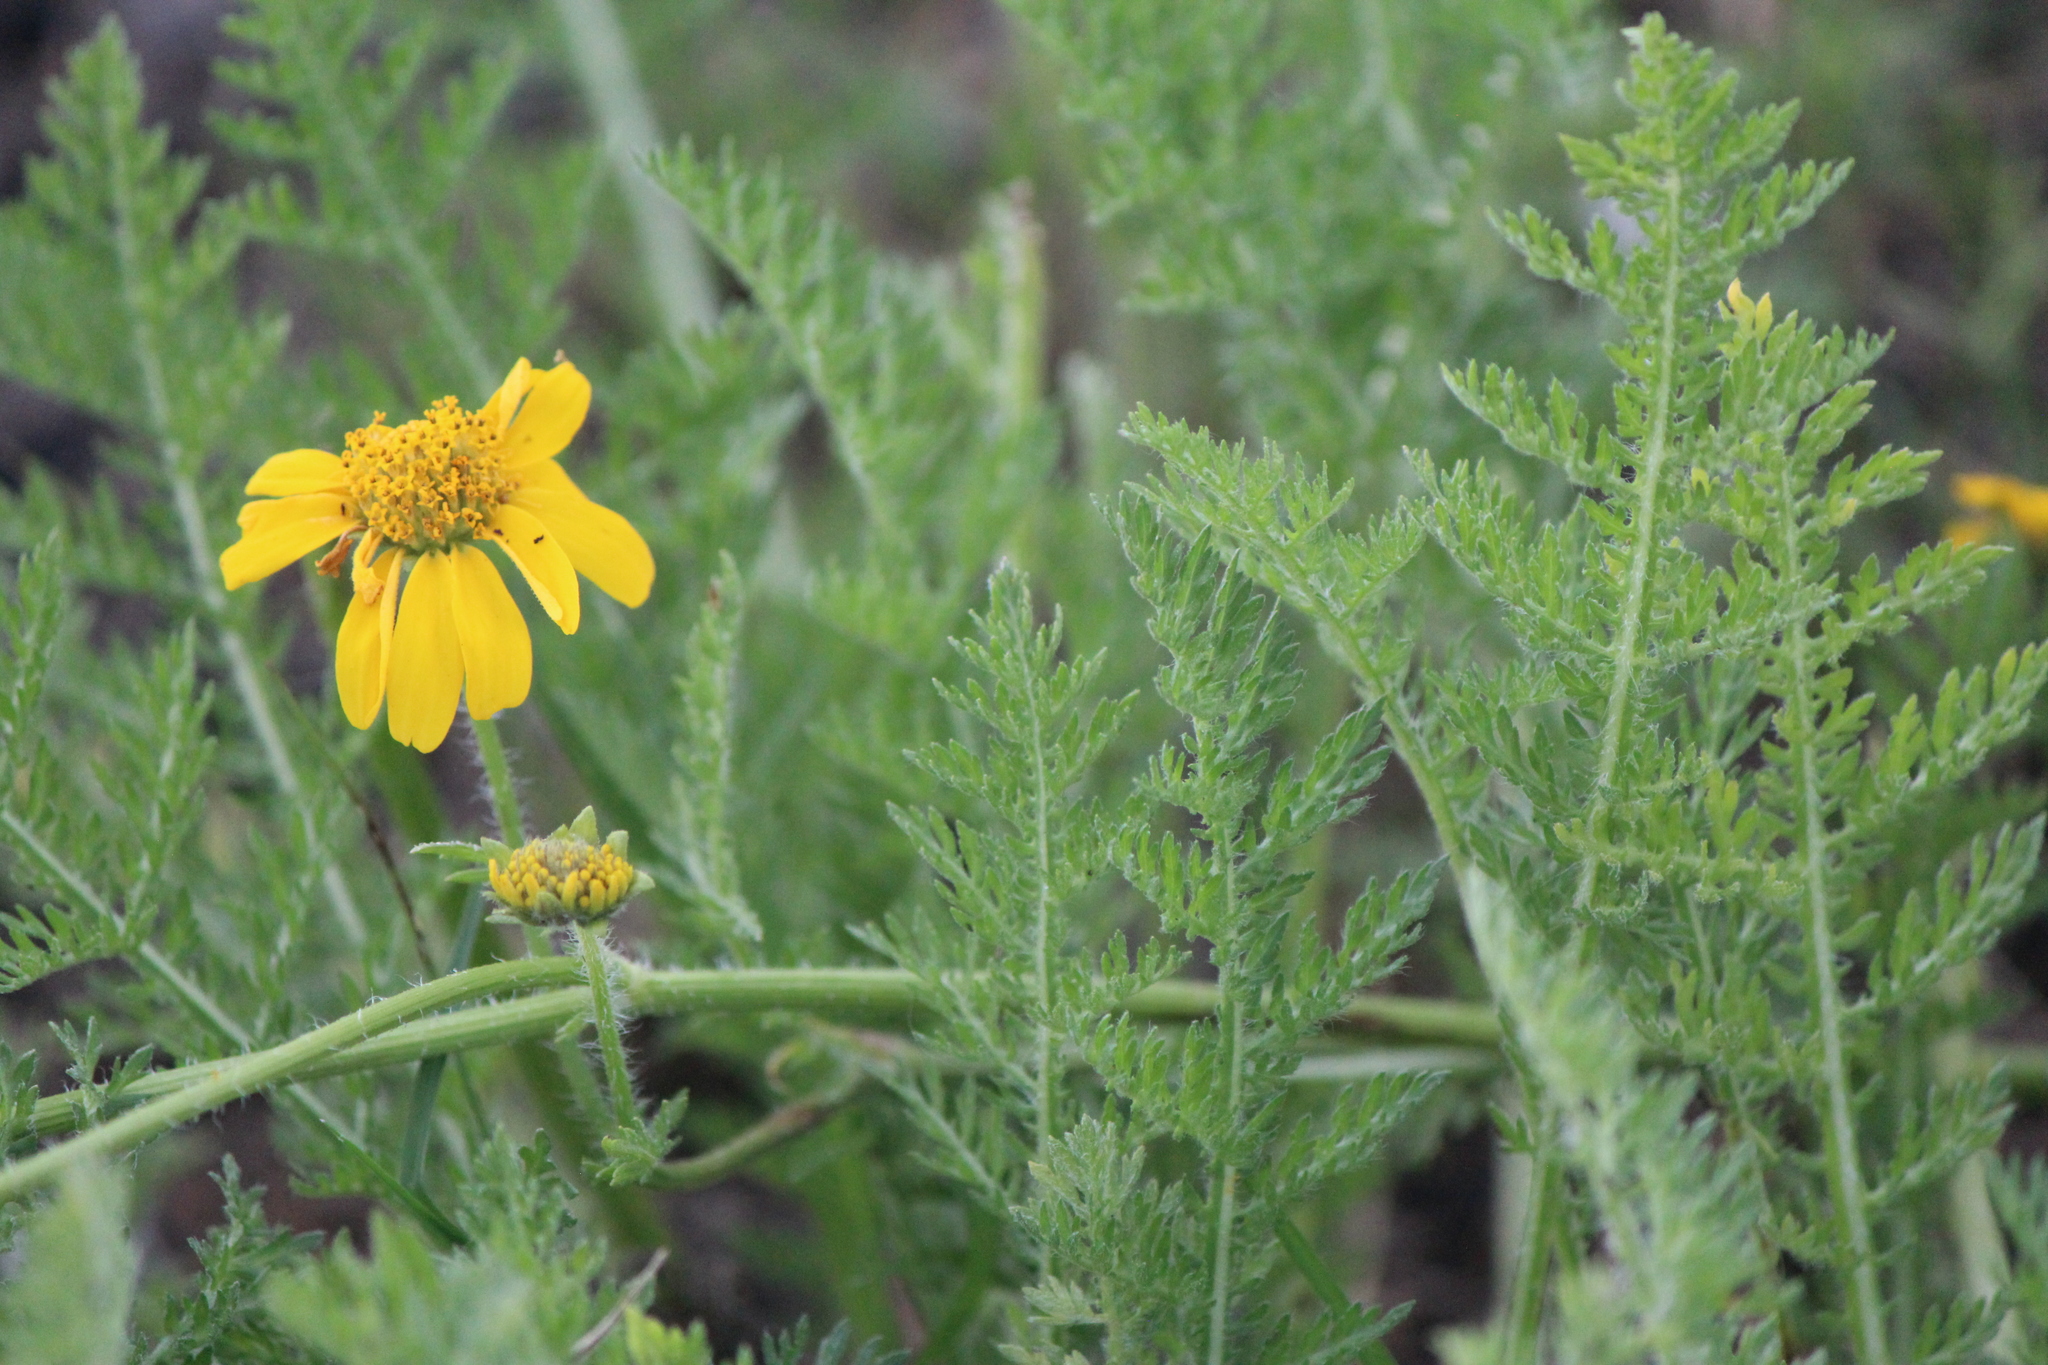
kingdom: Plantae
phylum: Tracheophyta
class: Magnoliopsida
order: Asterales
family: Asteraceae
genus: Hybridella
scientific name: Hybridella globosa
